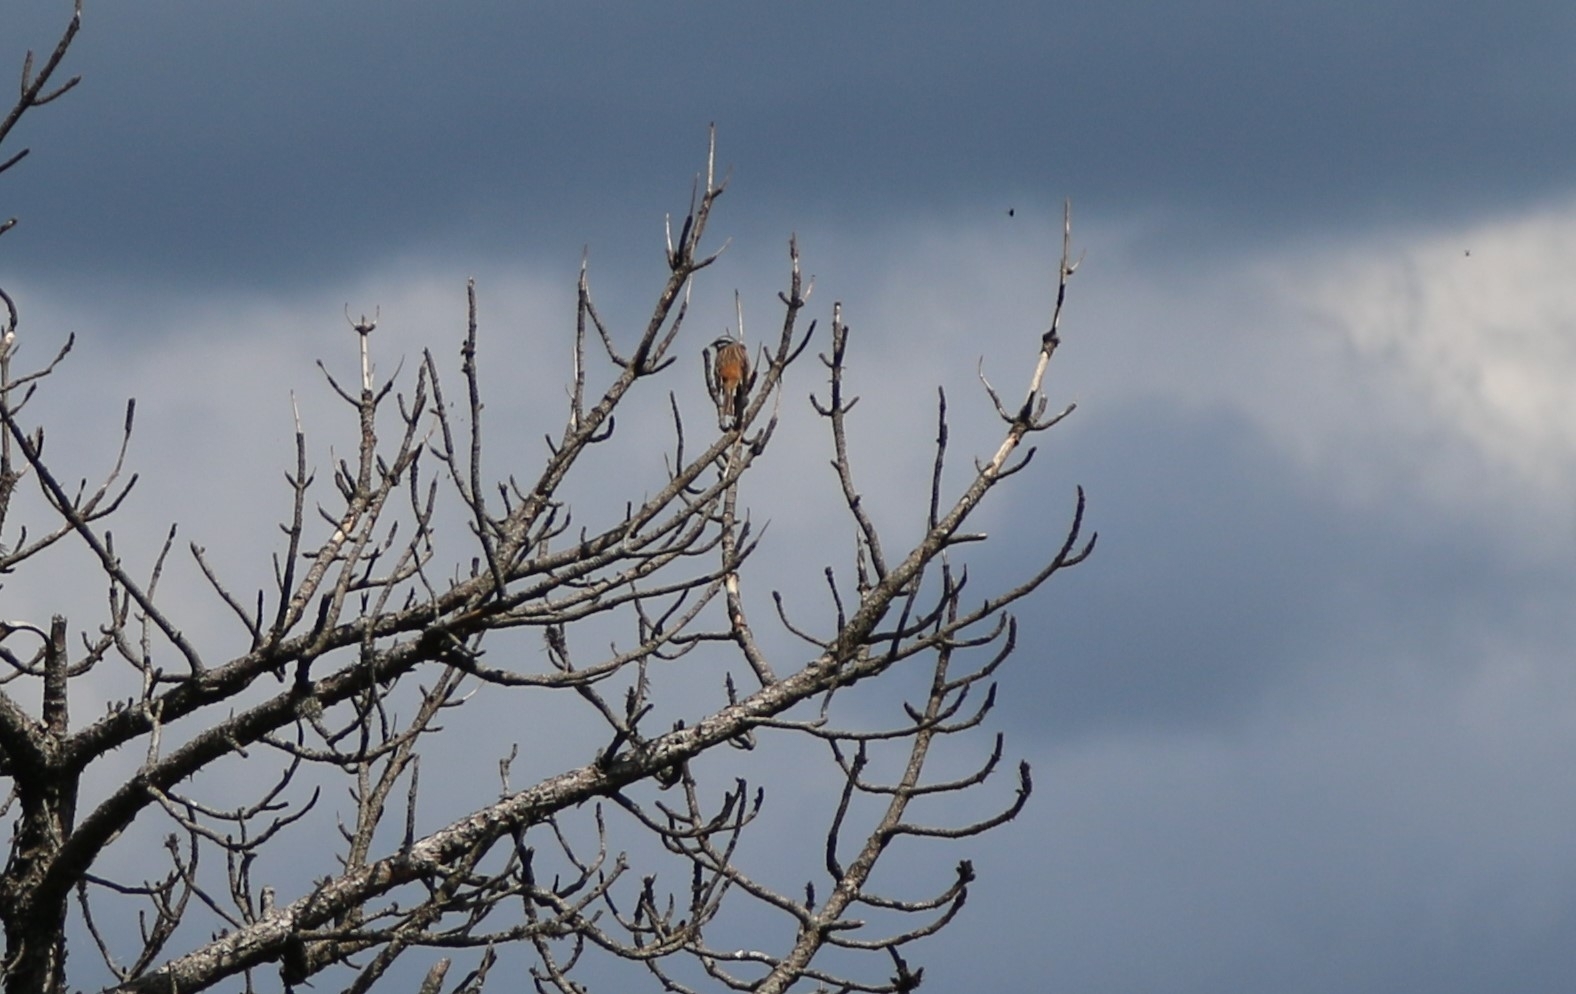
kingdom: Animalia
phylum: Chordata
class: Aves
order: Passeriformes
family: Emberizidae
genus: Emberiza
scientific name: Emberiza cia
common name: Rock bunting
